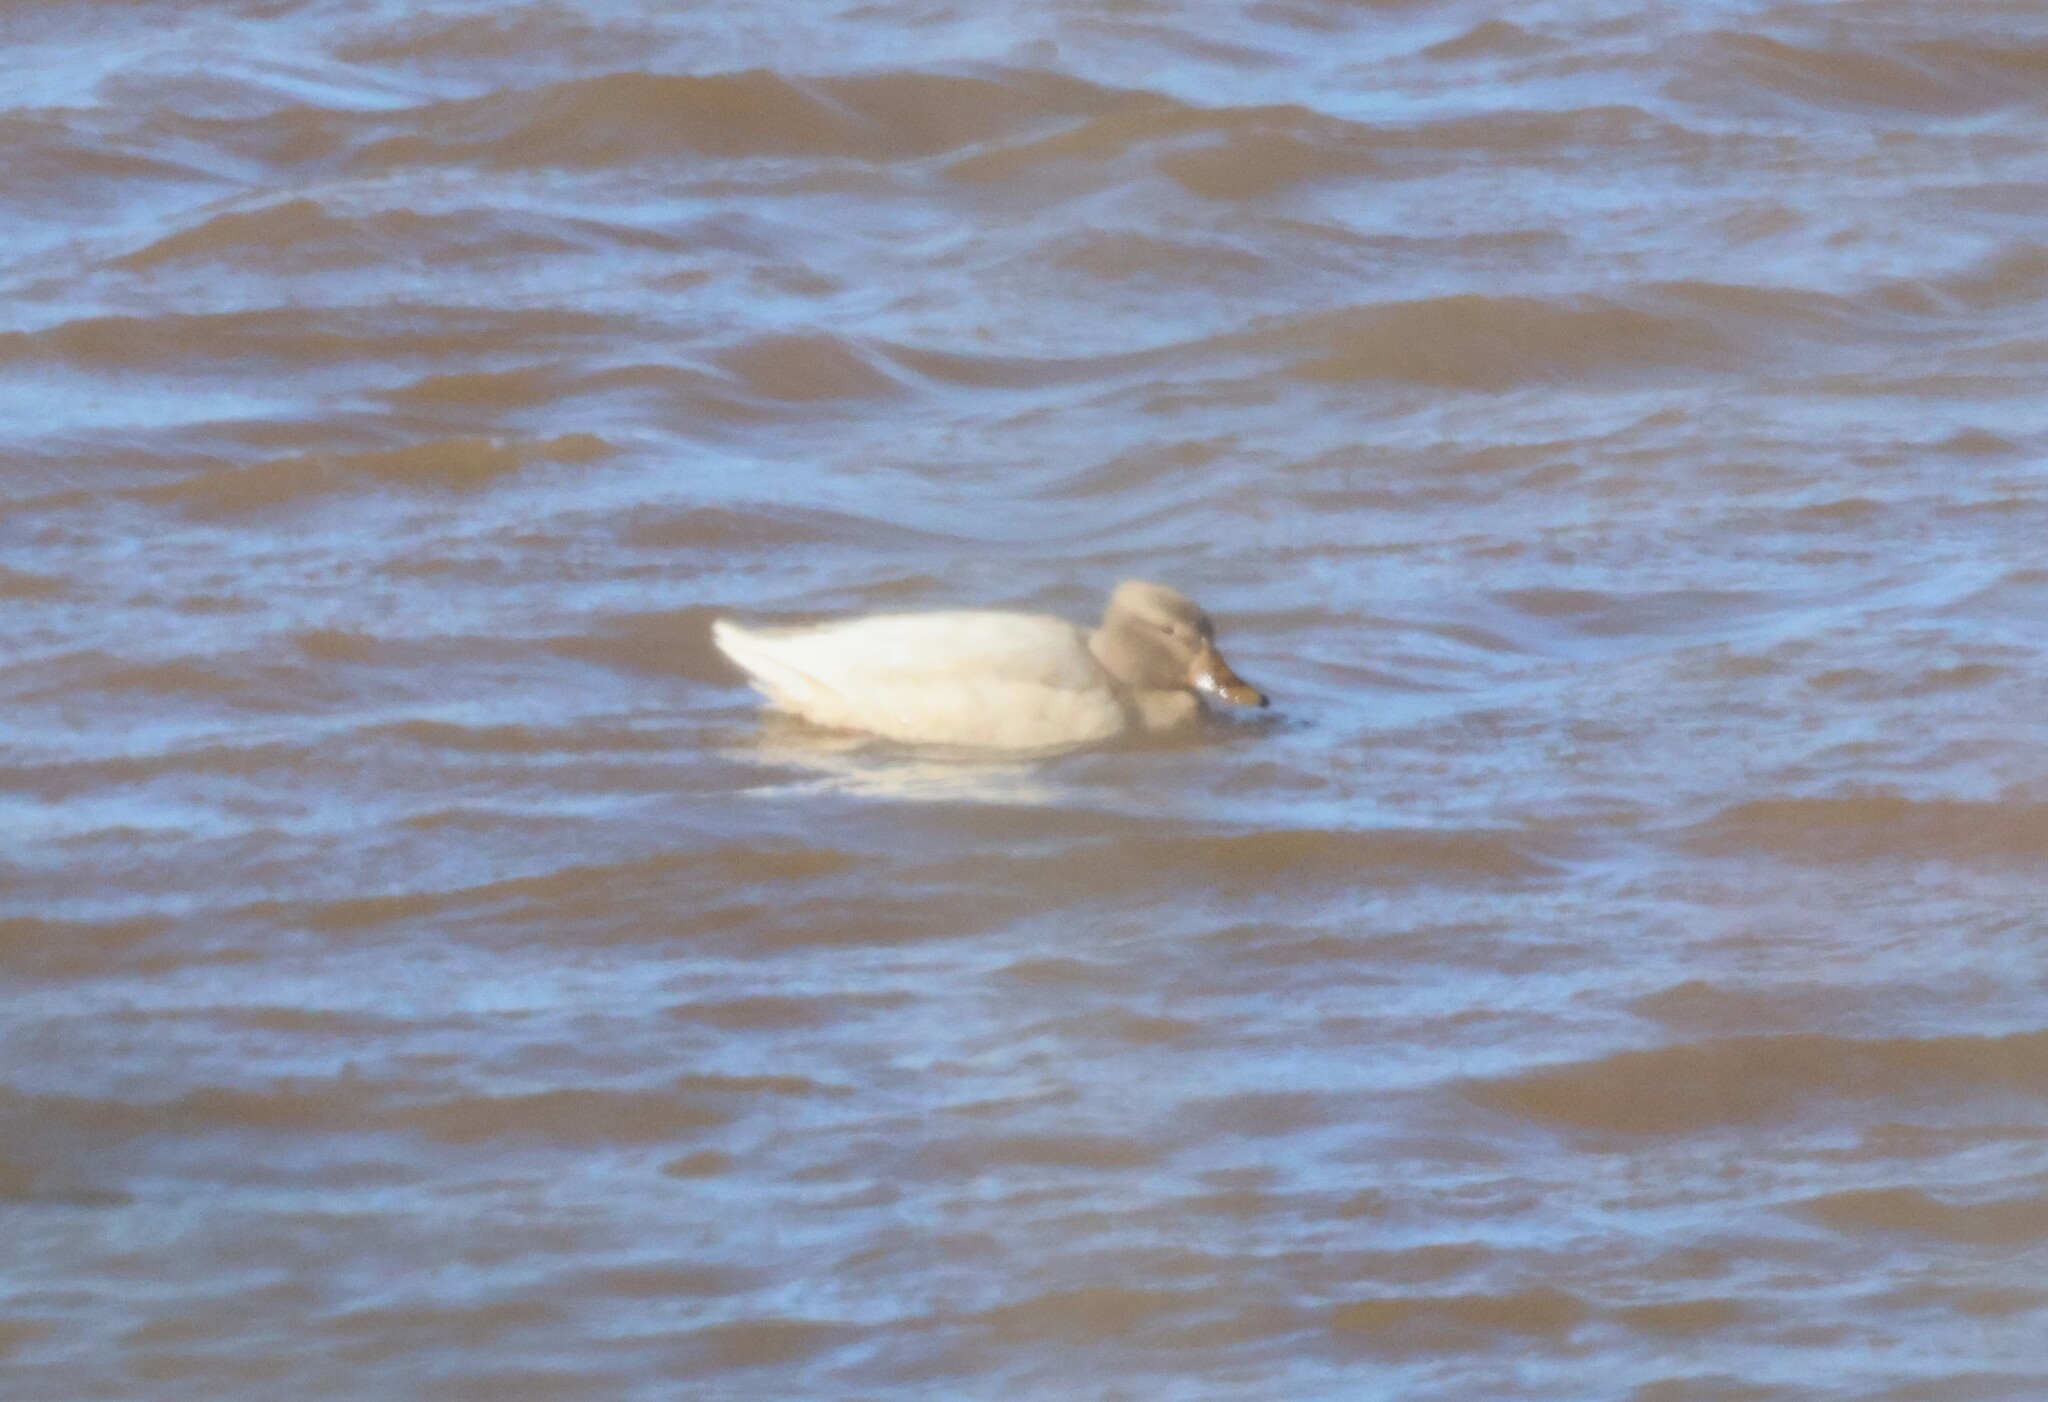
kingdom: Animalia
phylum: Chordata
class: Aves
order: Anseriformes
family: Anatidae
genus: Anas
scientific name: Anas platyrhynchos
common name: Mallard
